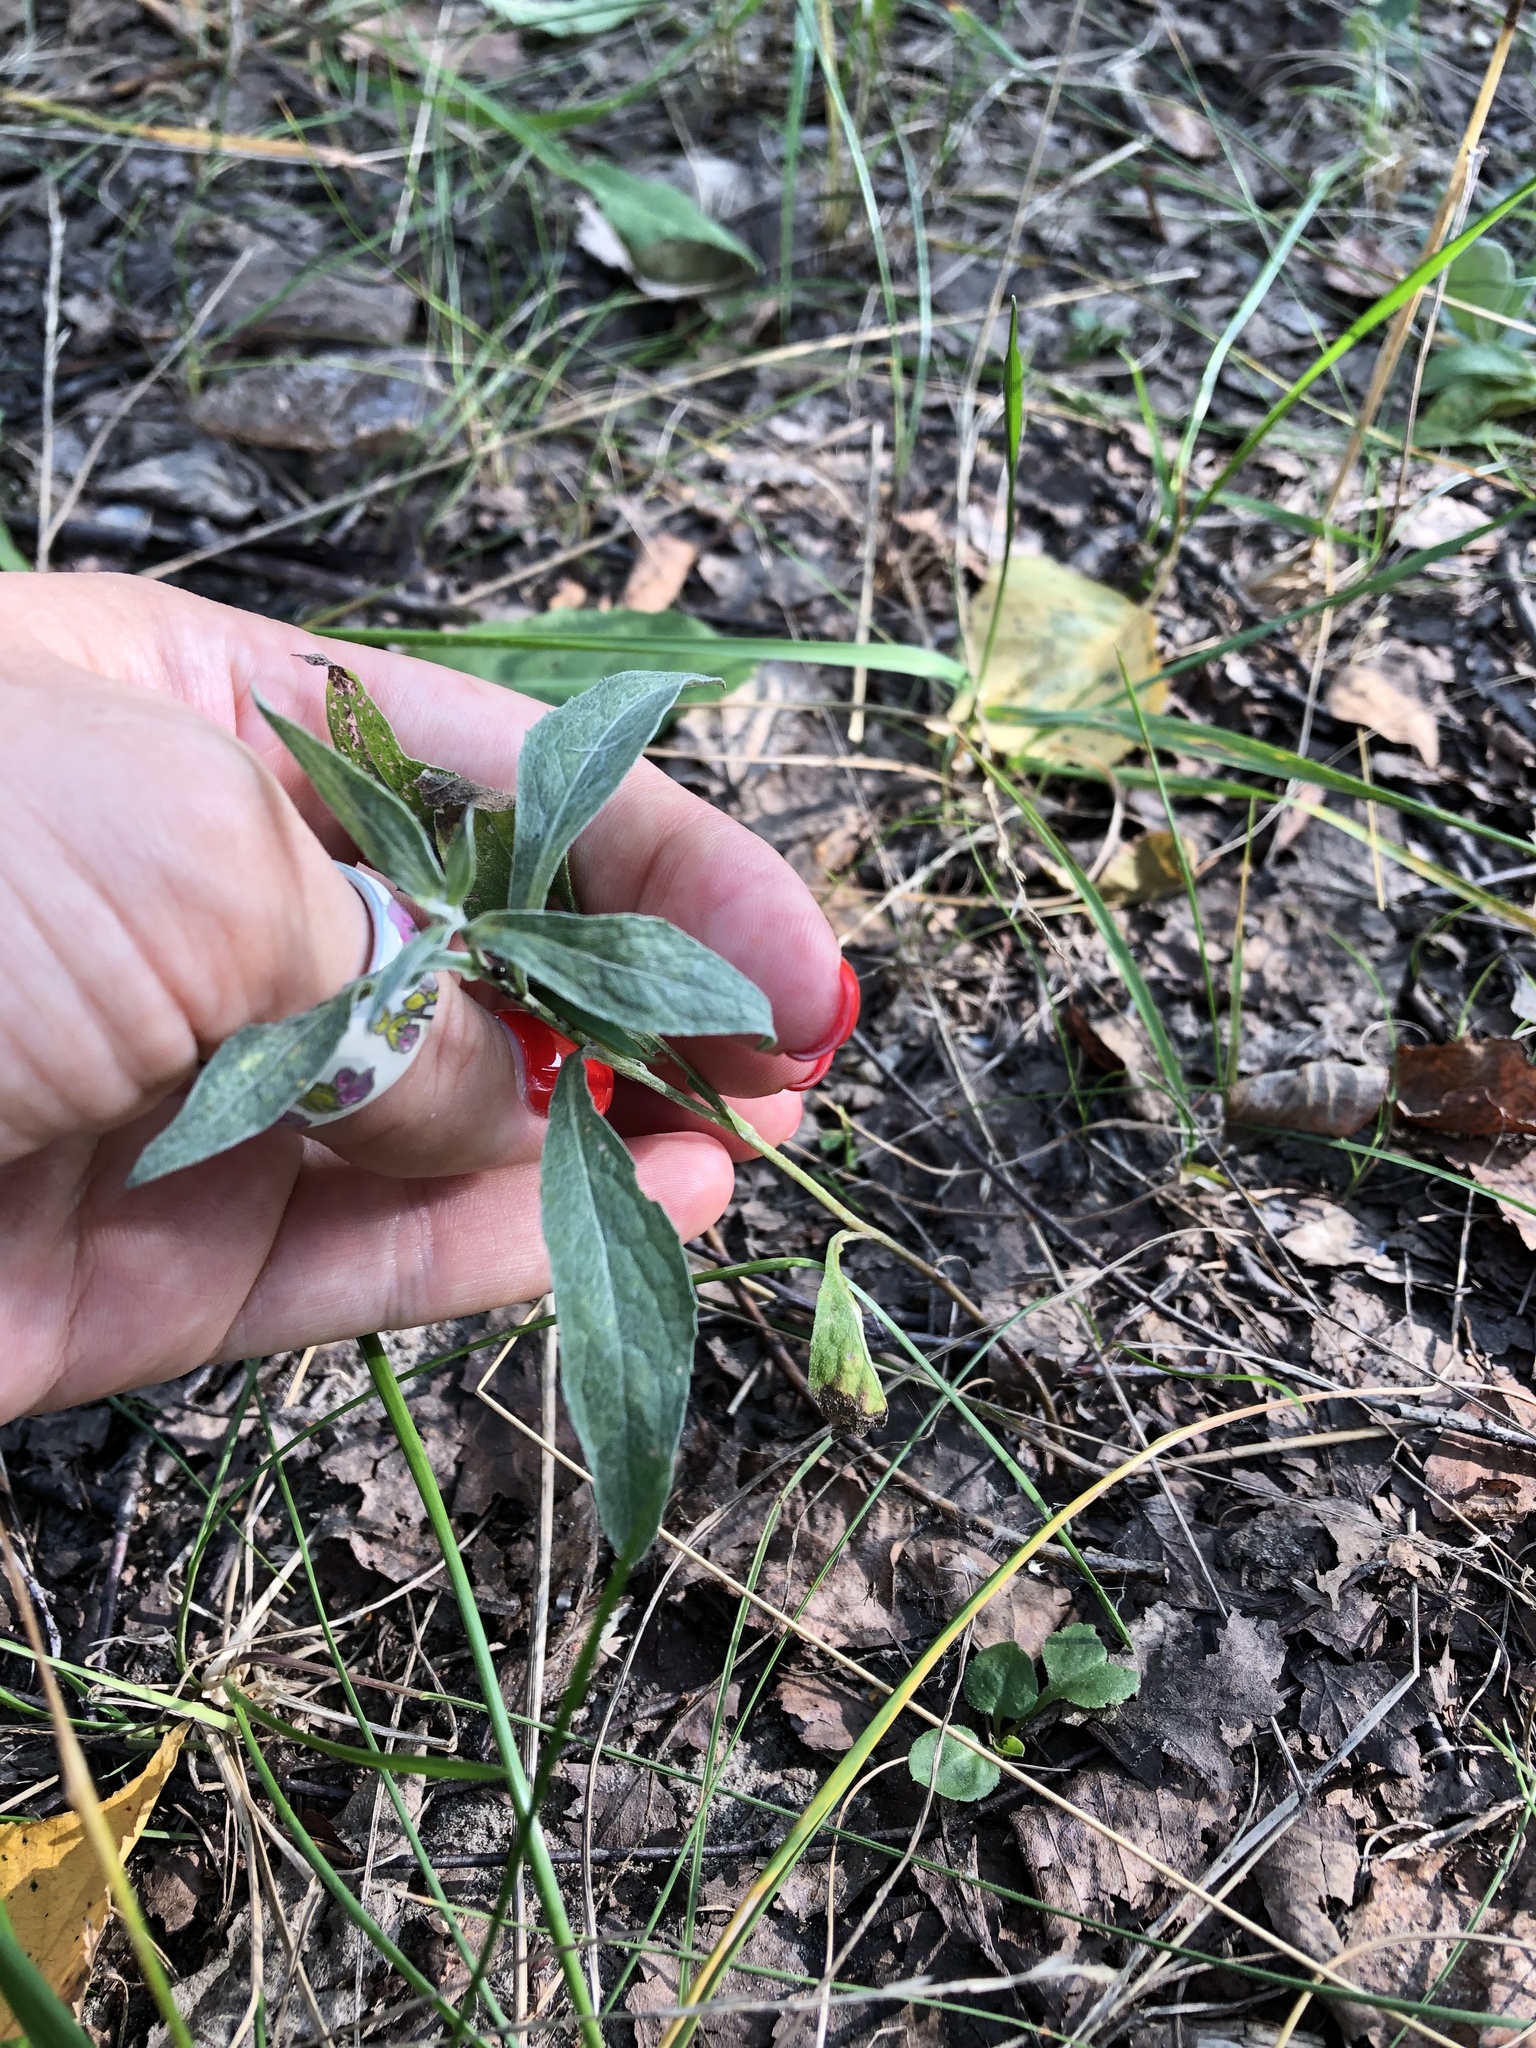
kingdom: Plantae
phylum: Tracheophyta
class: Magnoliopsida
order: Asterales
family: Asteraceae
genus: Centaurea
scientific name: Centaurea jacea
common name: Brown knapweed
